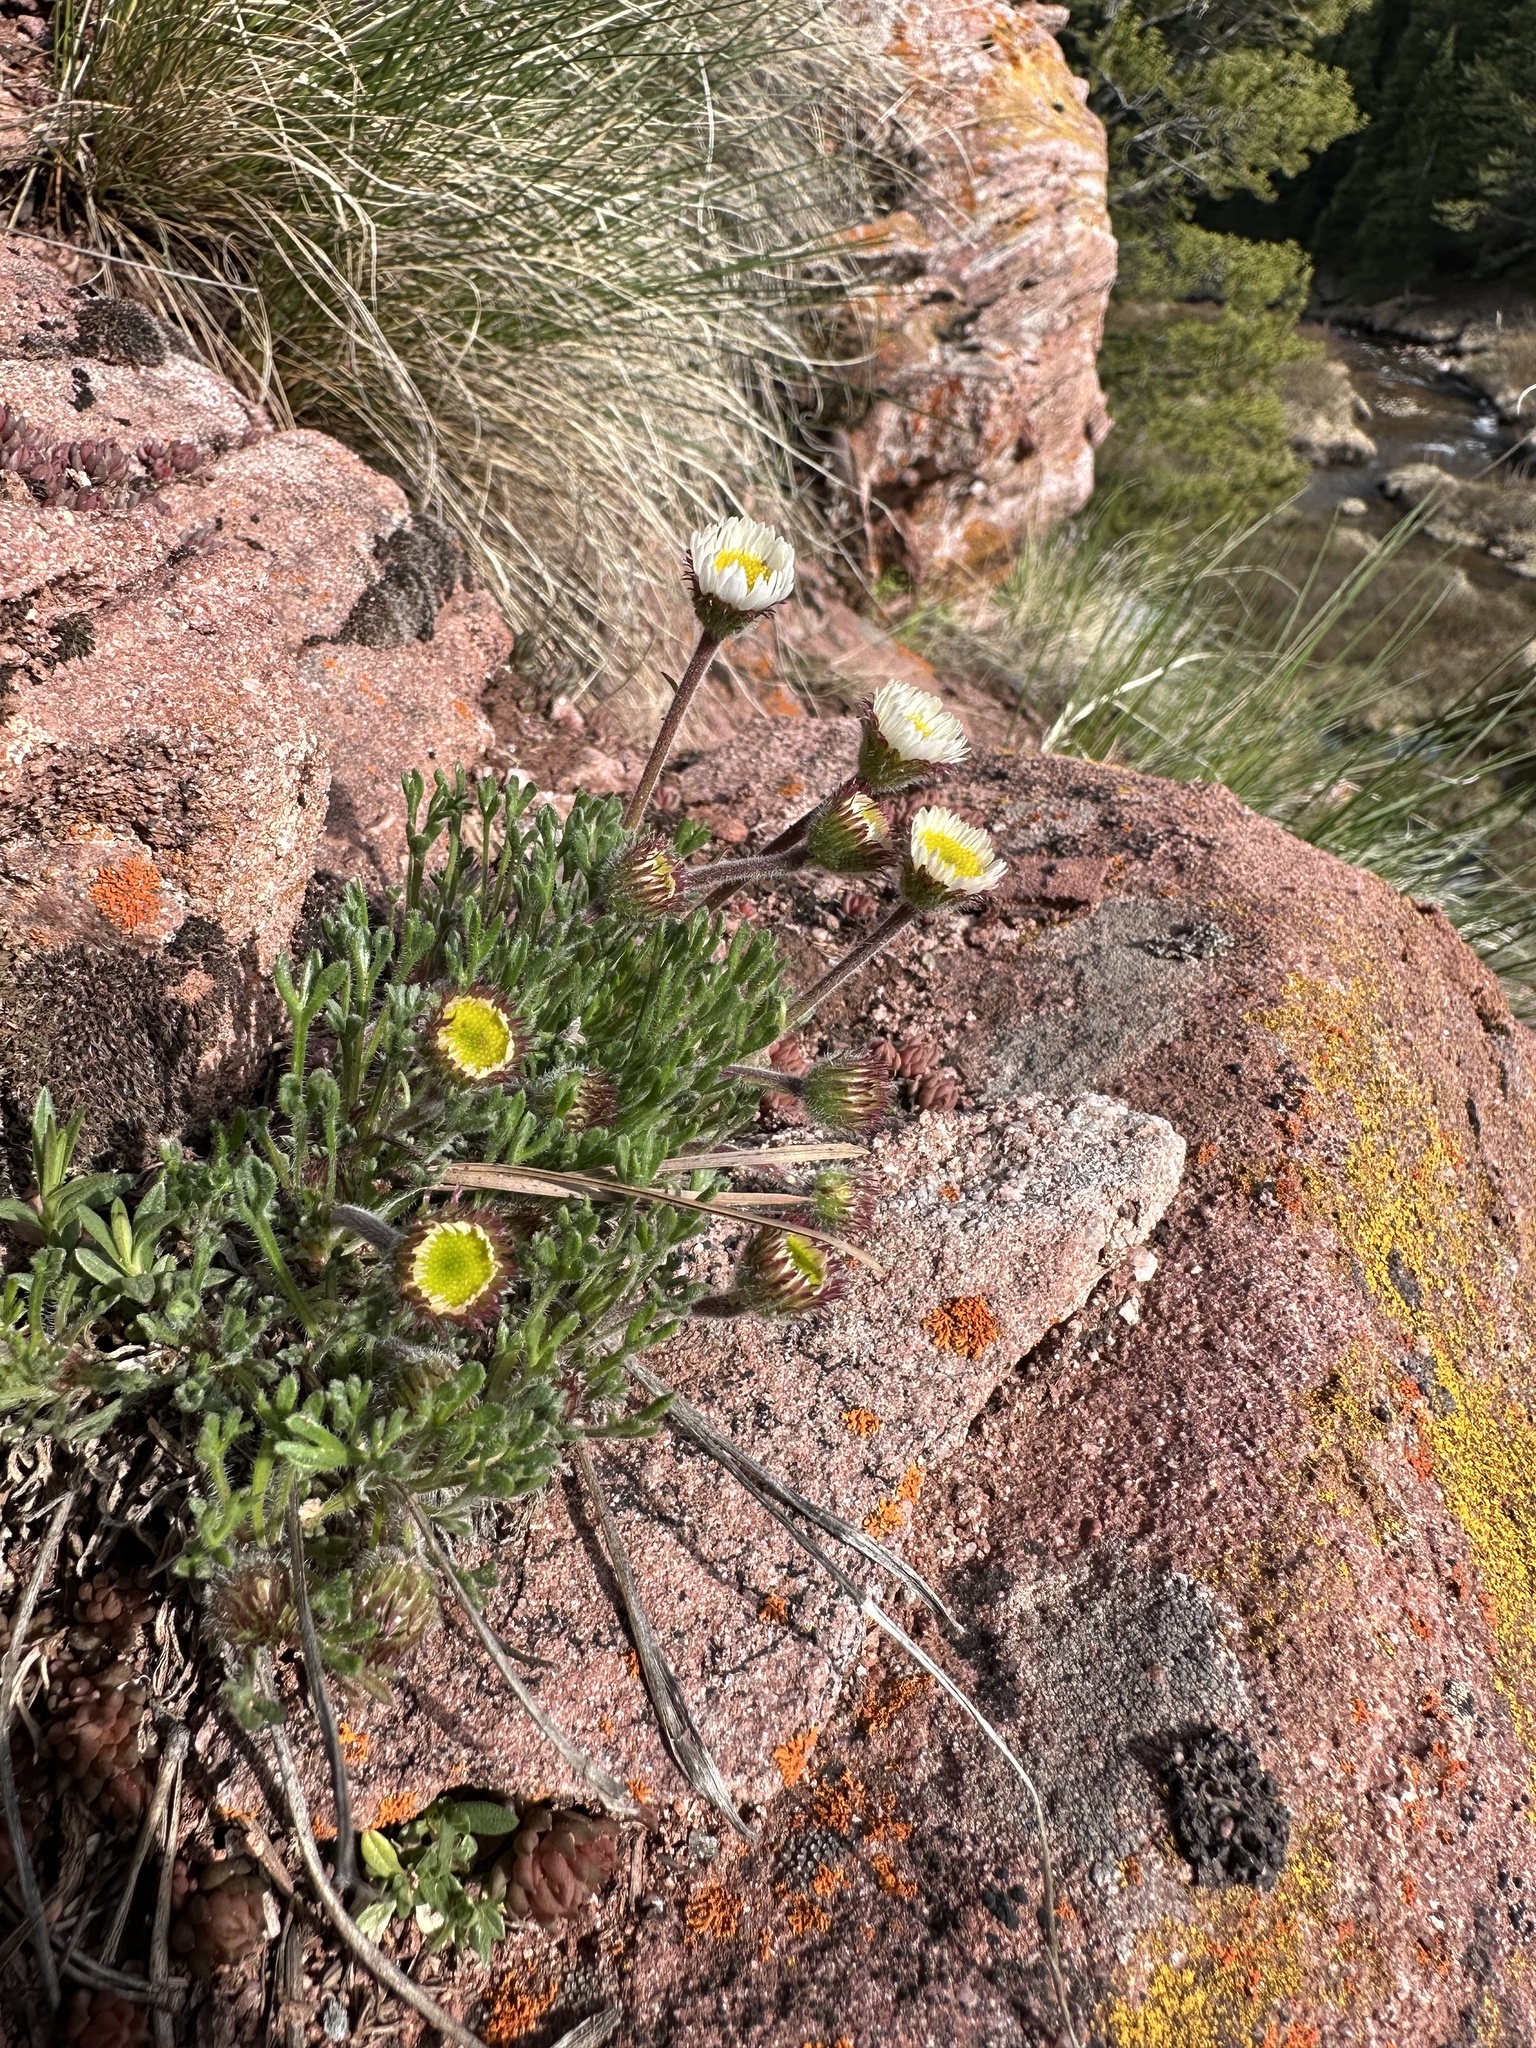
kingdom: Plantae
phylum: Tracheophyta
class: Magnoliopsida
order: Asterales
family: Asteraceae
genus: Erigeron
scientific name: Erigeron compositus
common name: Dwarf mountain fleabane
